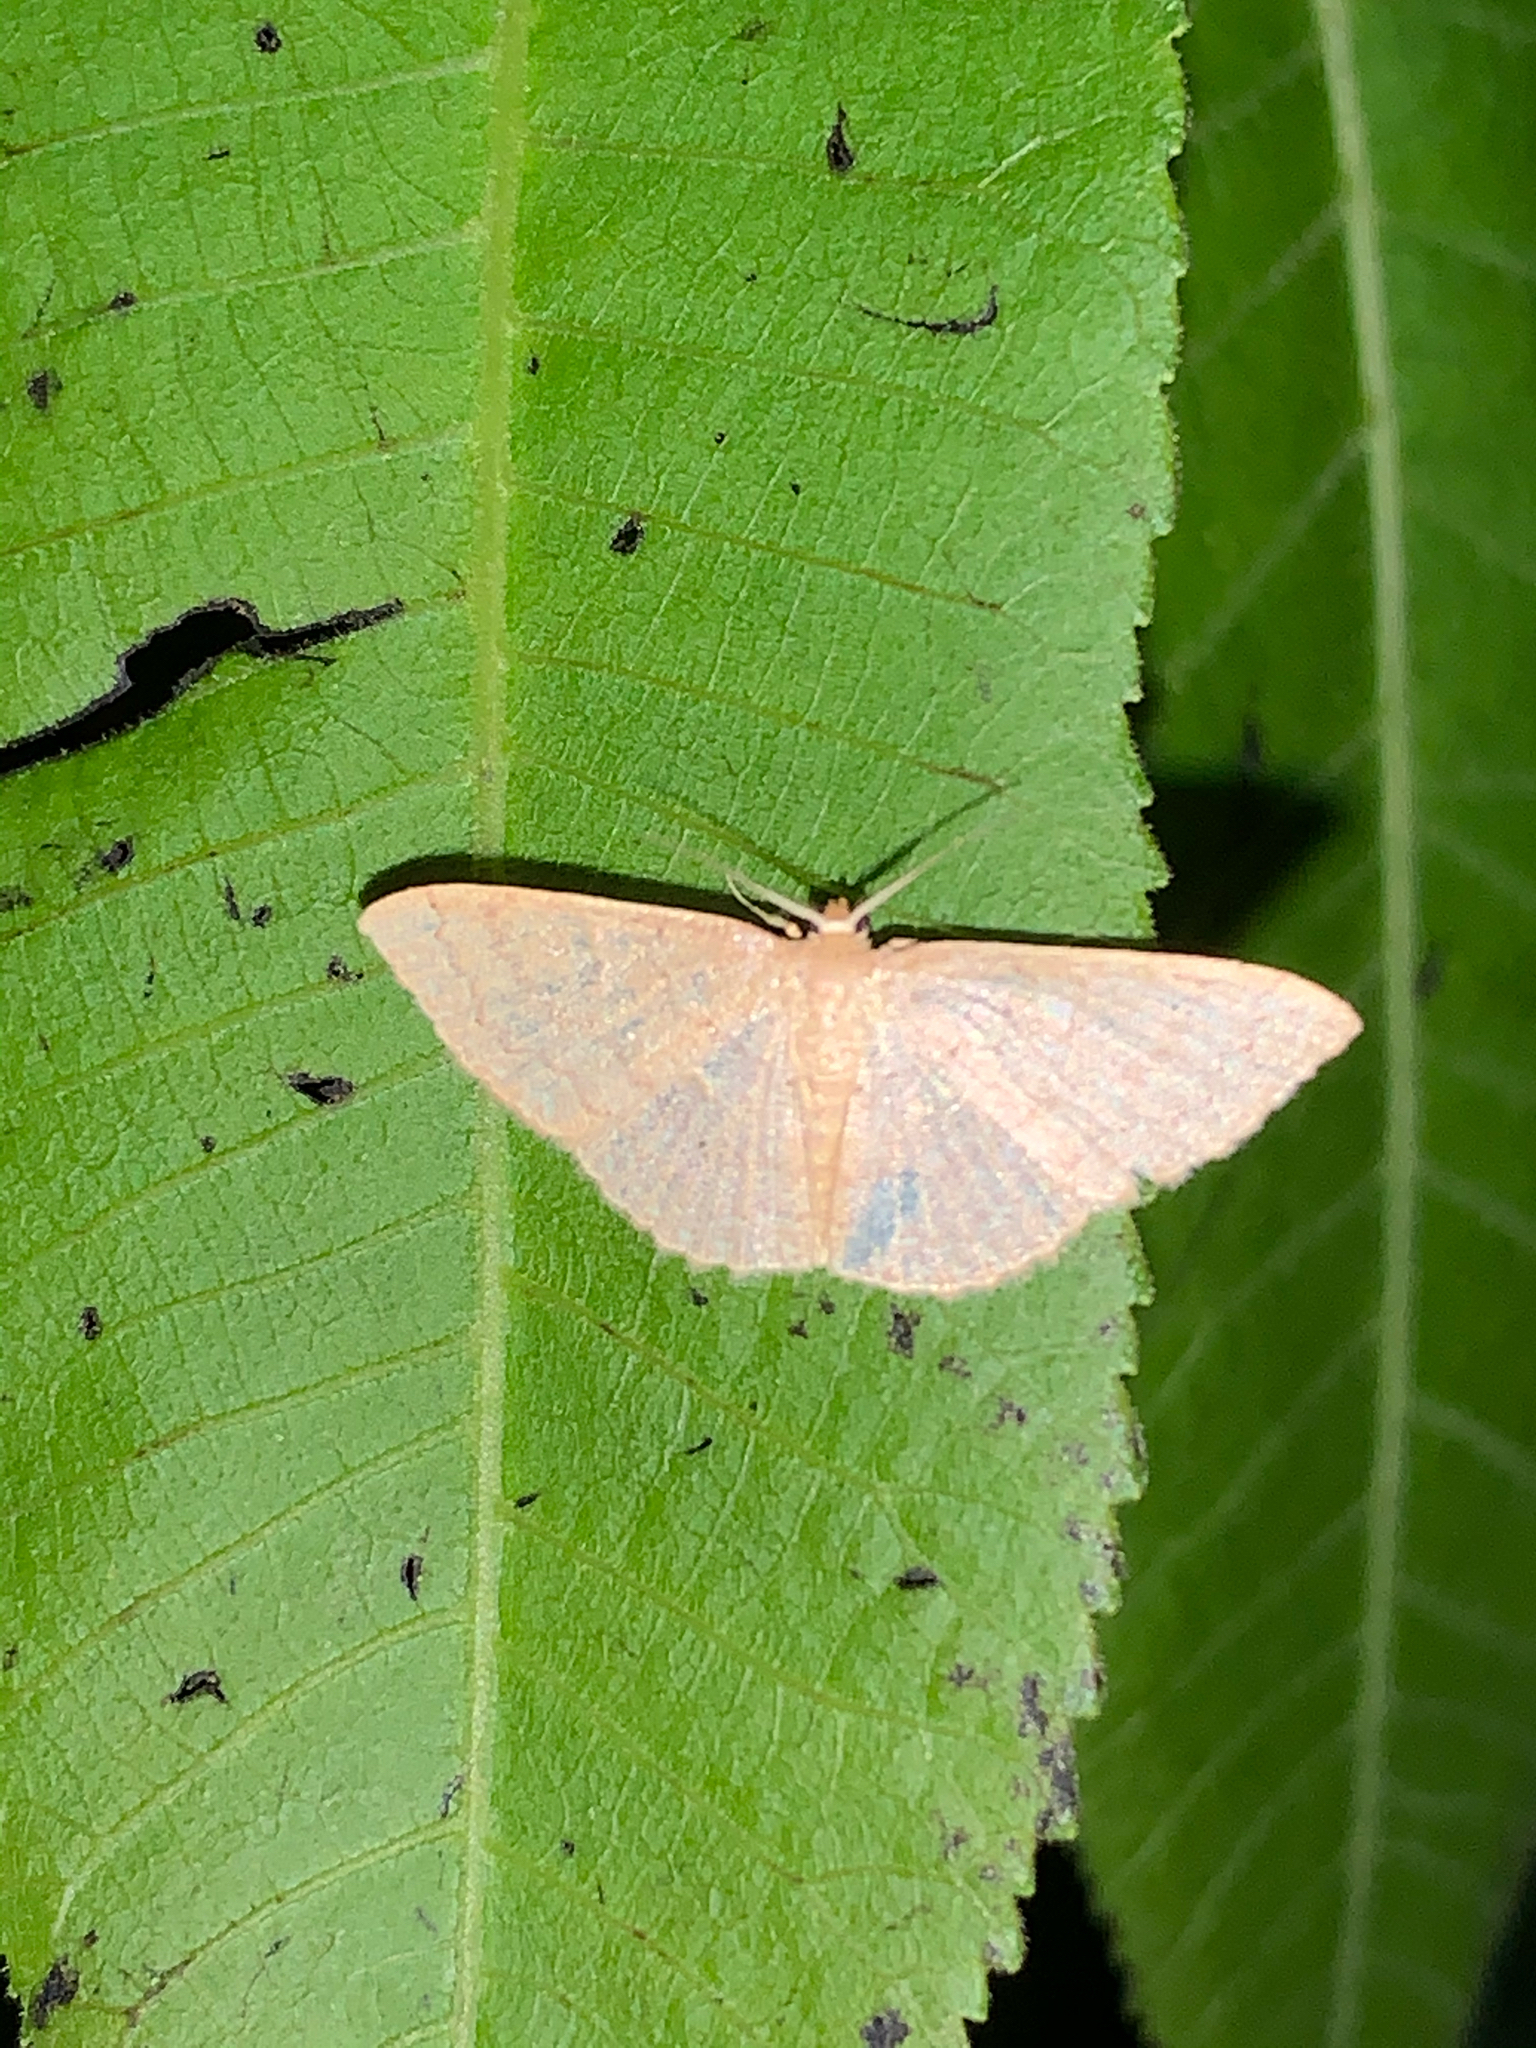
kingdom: Animalia
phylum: Arthropoda
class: Insecta
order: Lepidoptera
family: Geometridae
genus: Pleuroprucha
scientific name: Pleuroprucha insulsaria
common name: Common tan wave
